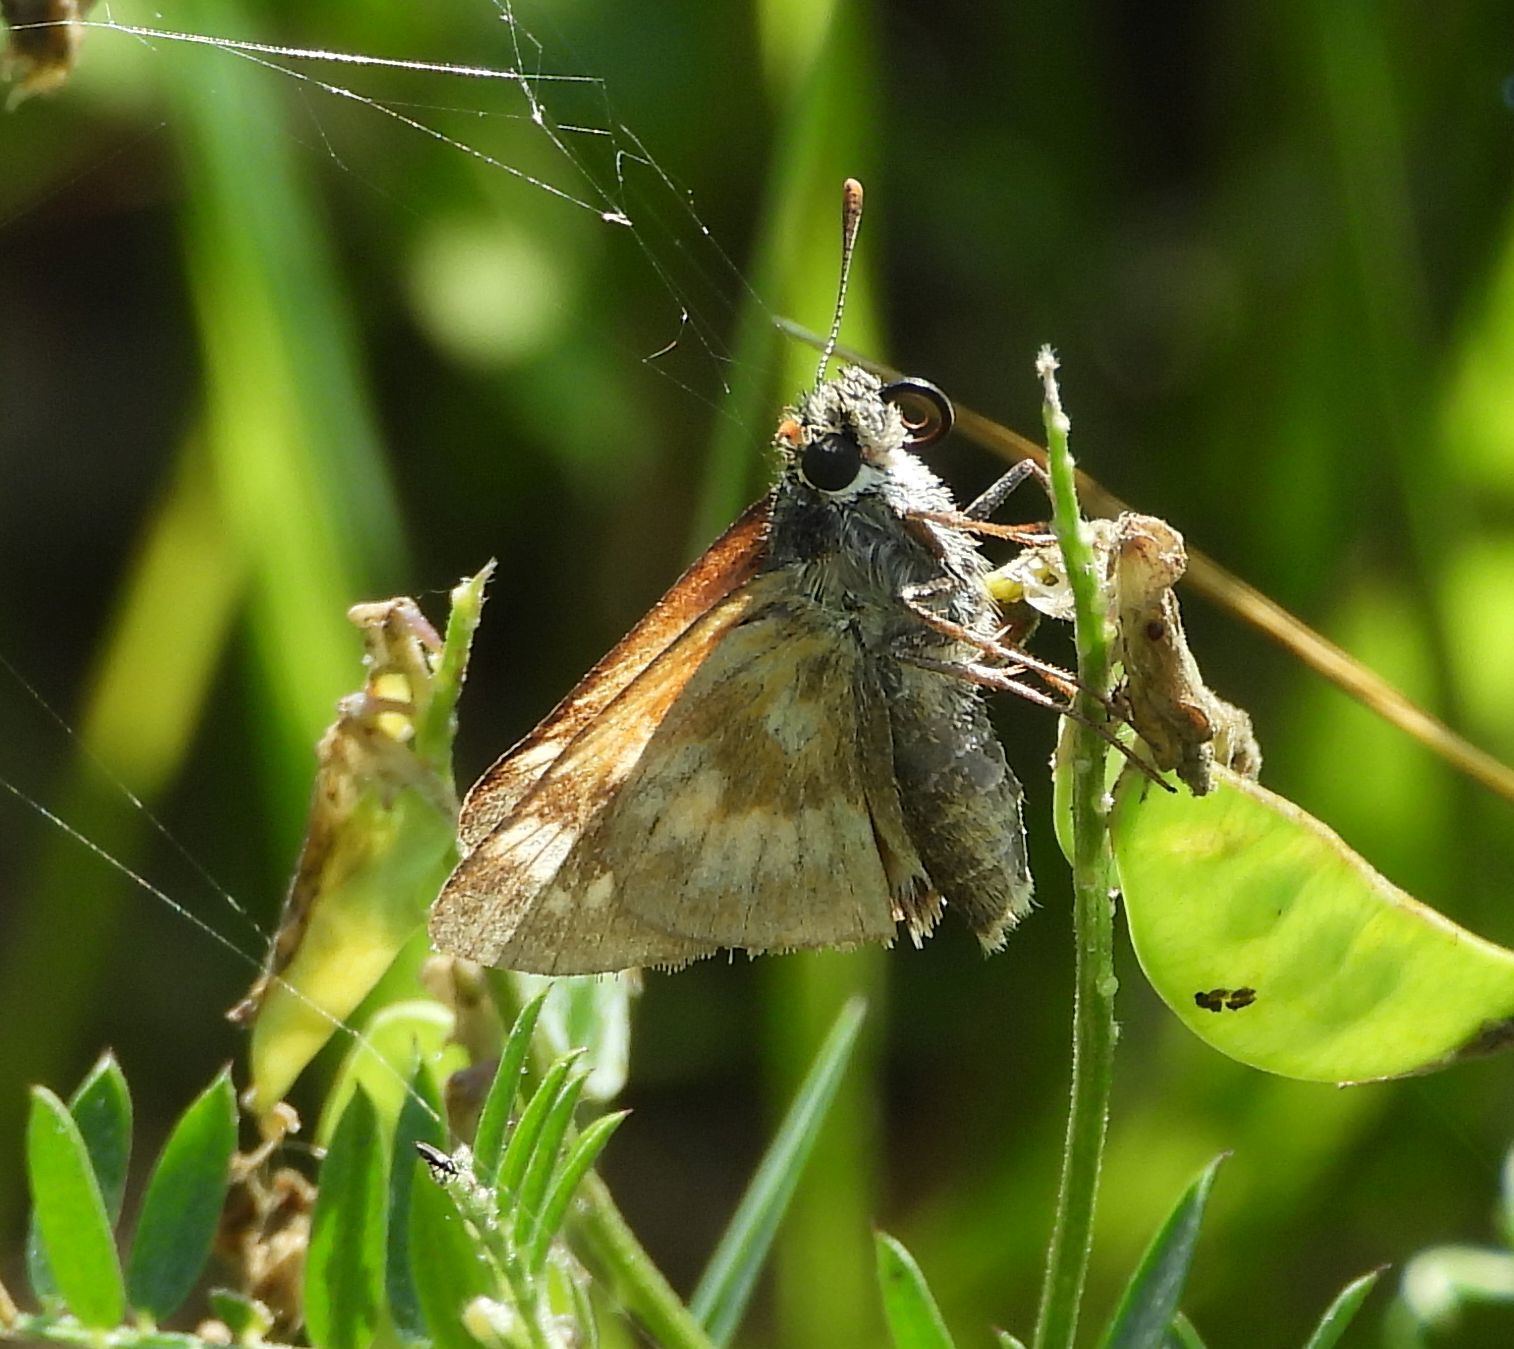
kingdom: Animalia
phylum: Arthropoda
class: Insecta
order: Lepidoptera
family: Hesperiidae
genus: Polites
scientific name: Polites mystic
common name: Long dash
